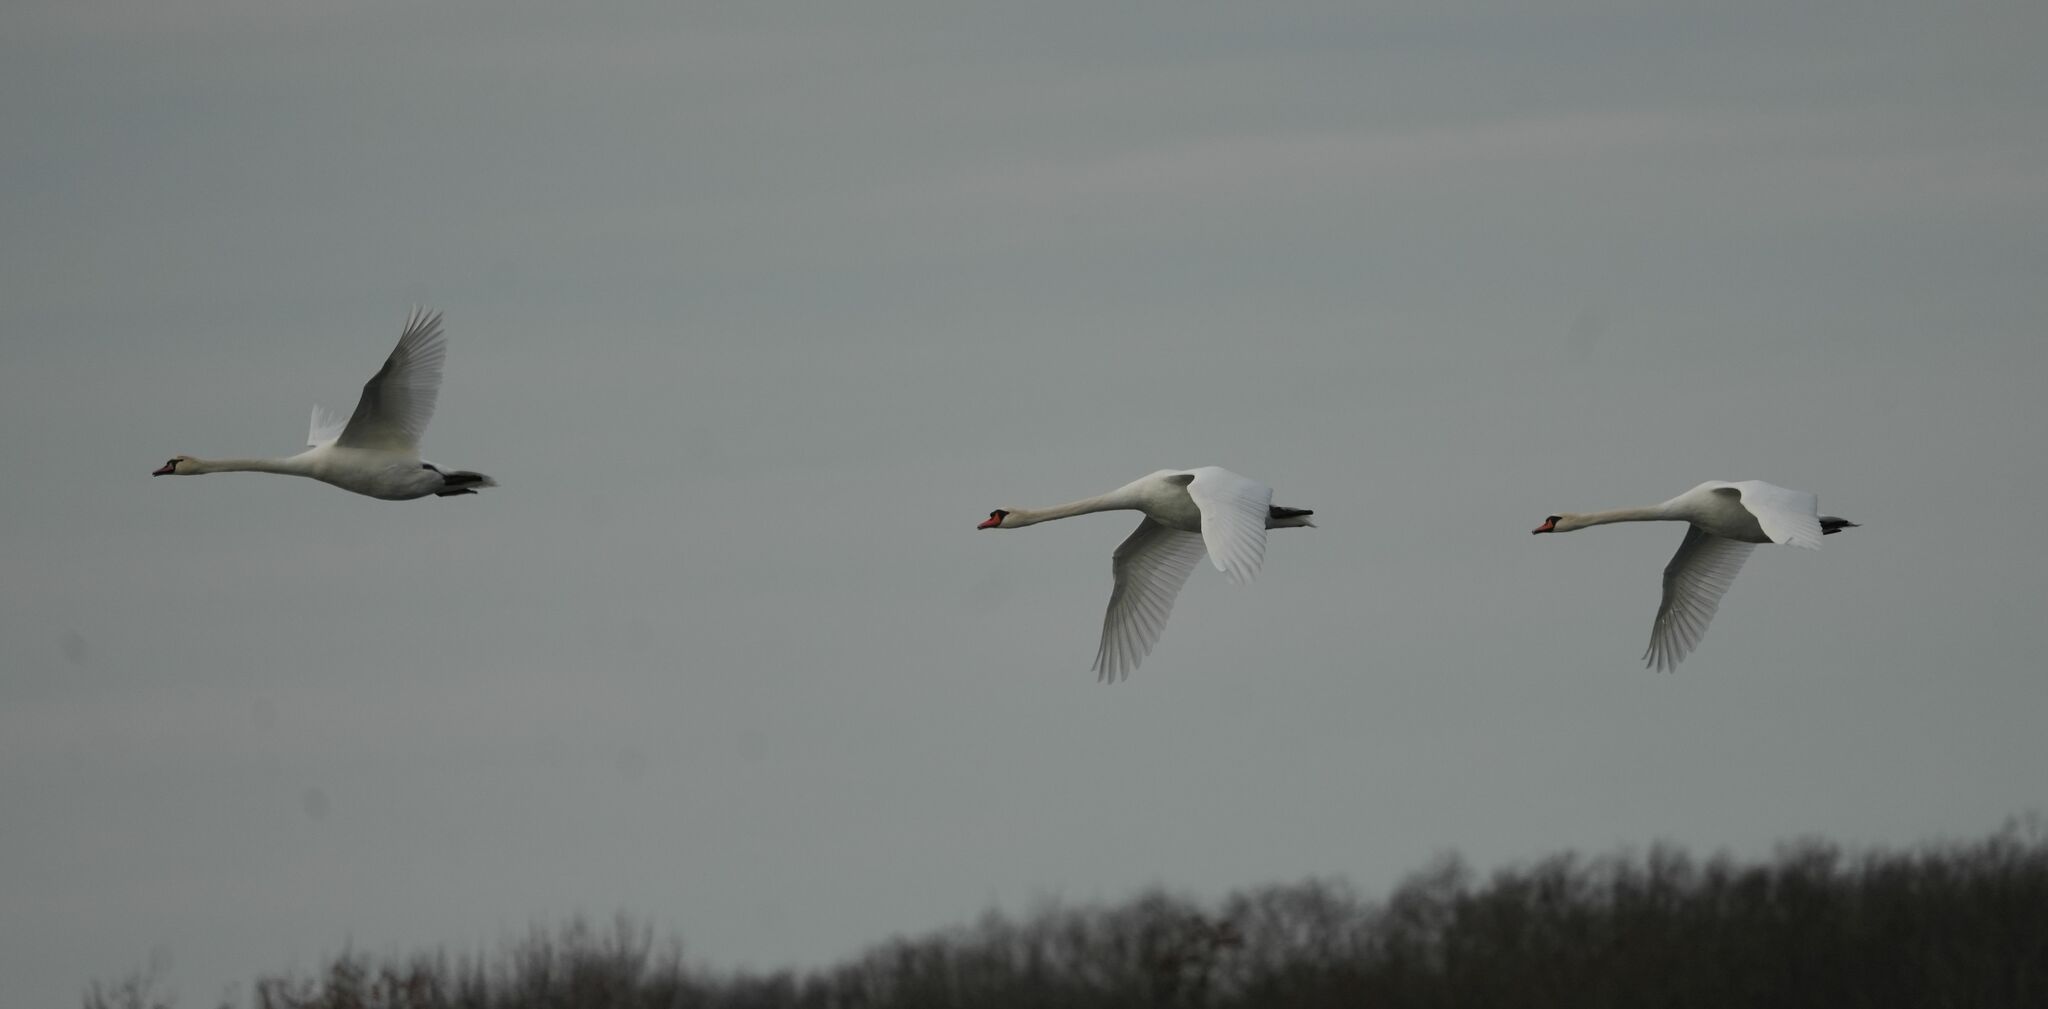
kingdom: Animalia
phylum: Chordata
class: Aves
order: Anseriformes
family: Anatidae
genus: Cygnus
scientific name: Cygnus olor
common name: Mute swan
